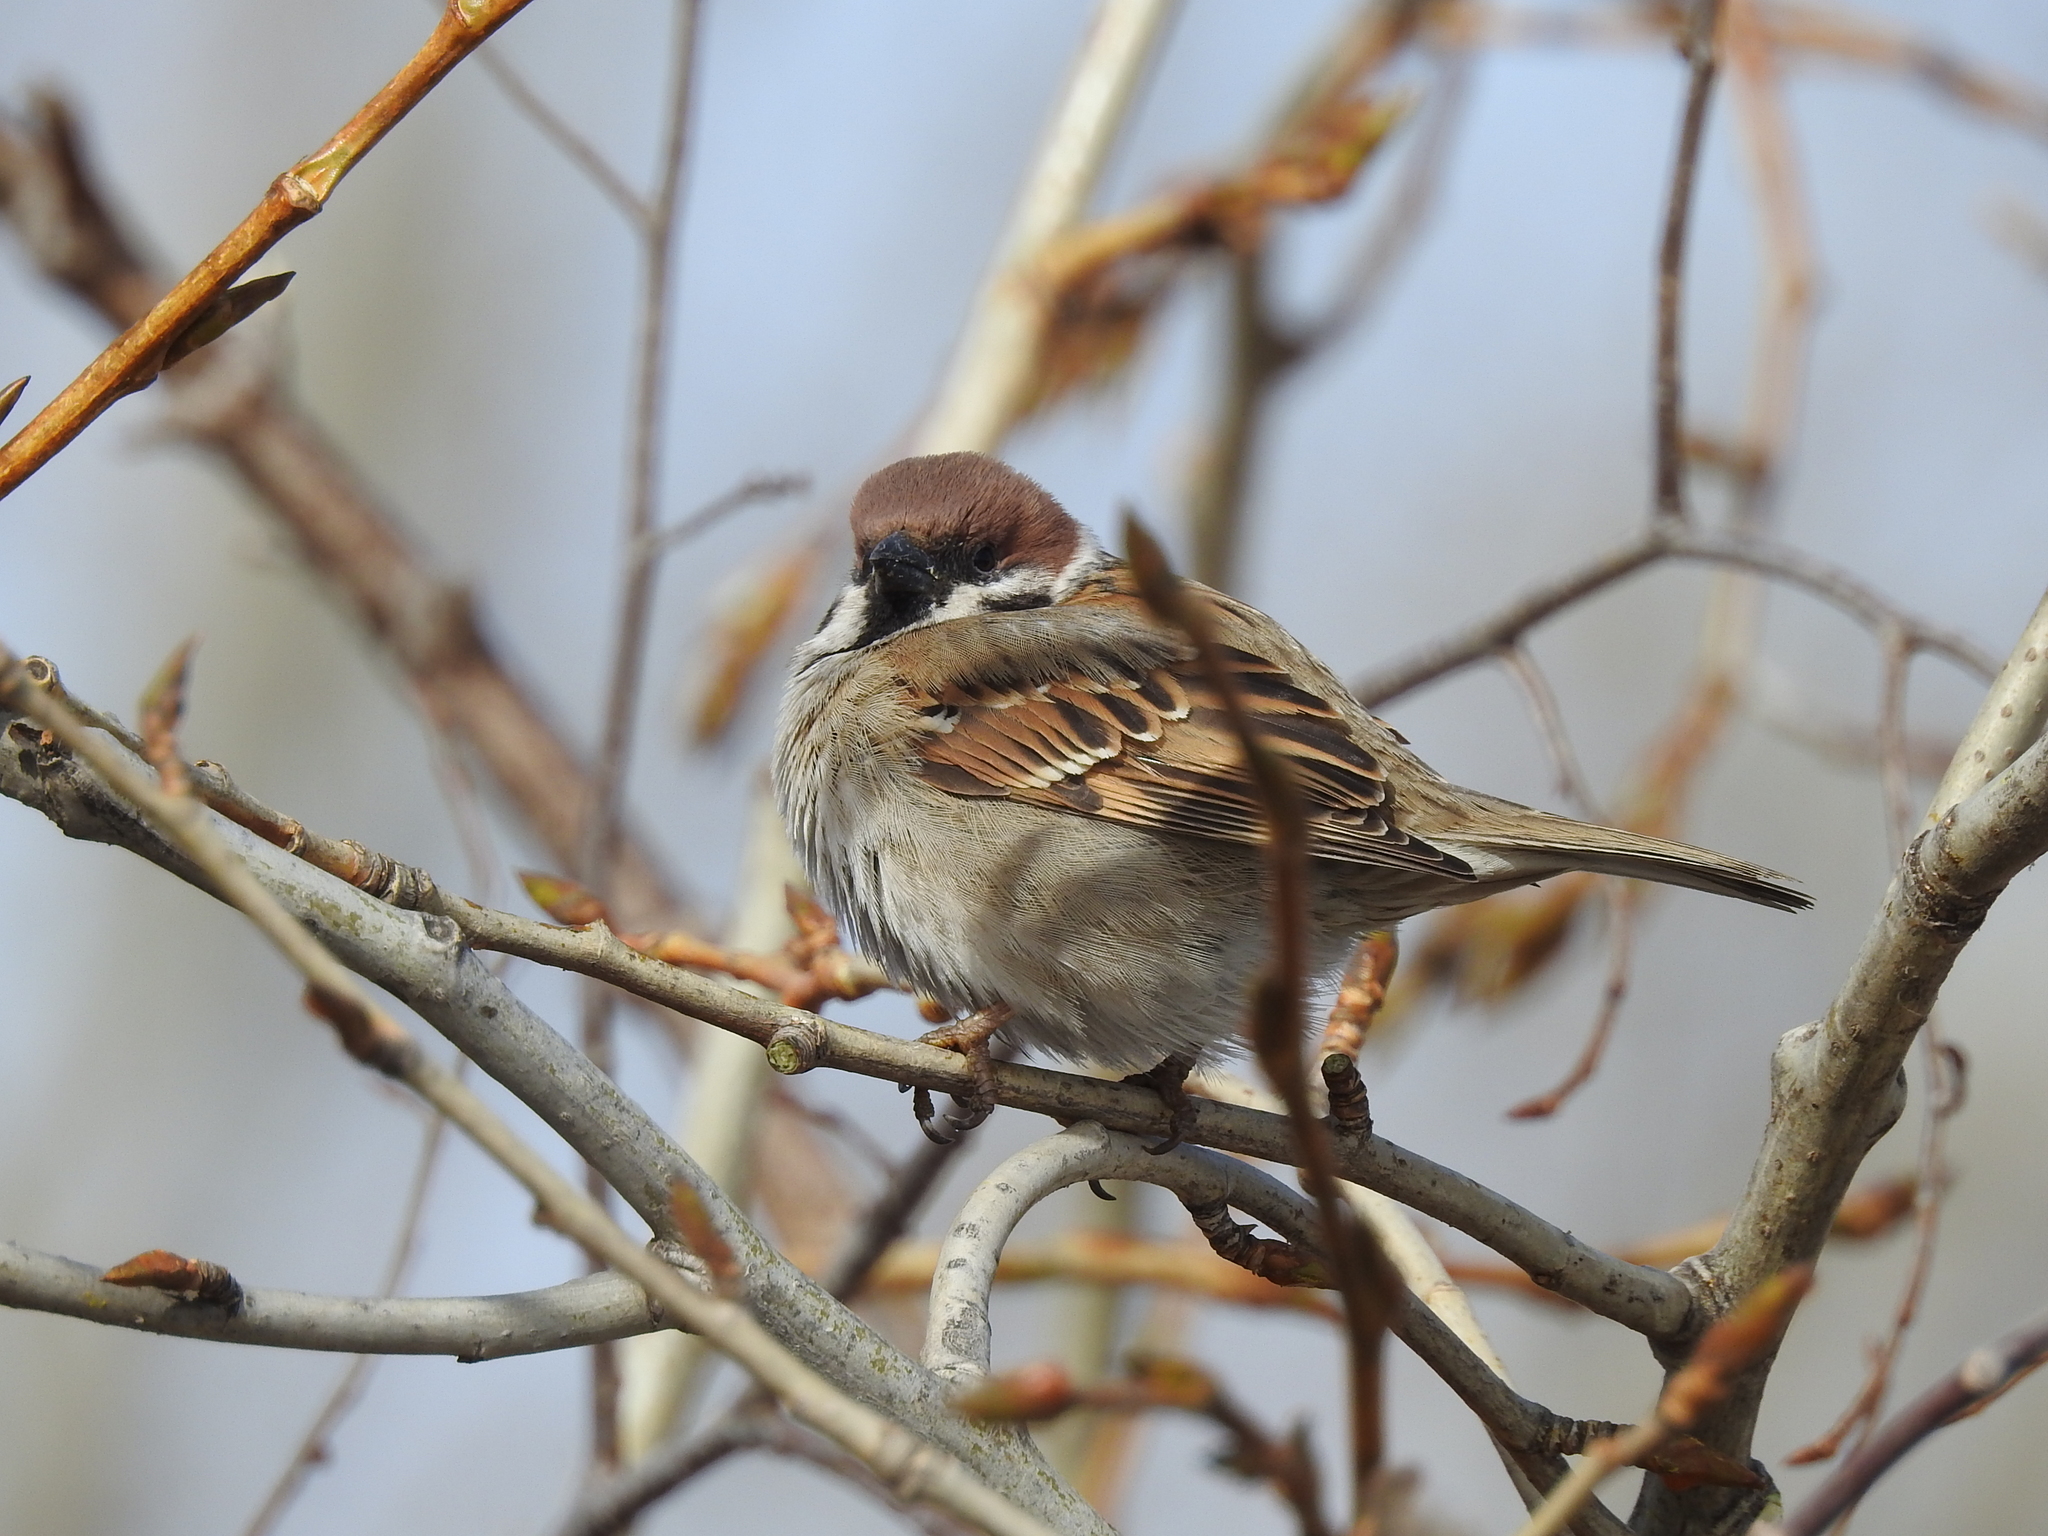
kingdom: Animalia
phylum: Chordata
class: Aves
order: Passeriformes
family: Passeridae
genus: Passer
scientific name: Passer montanus
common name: Eurasian tree sparrow
